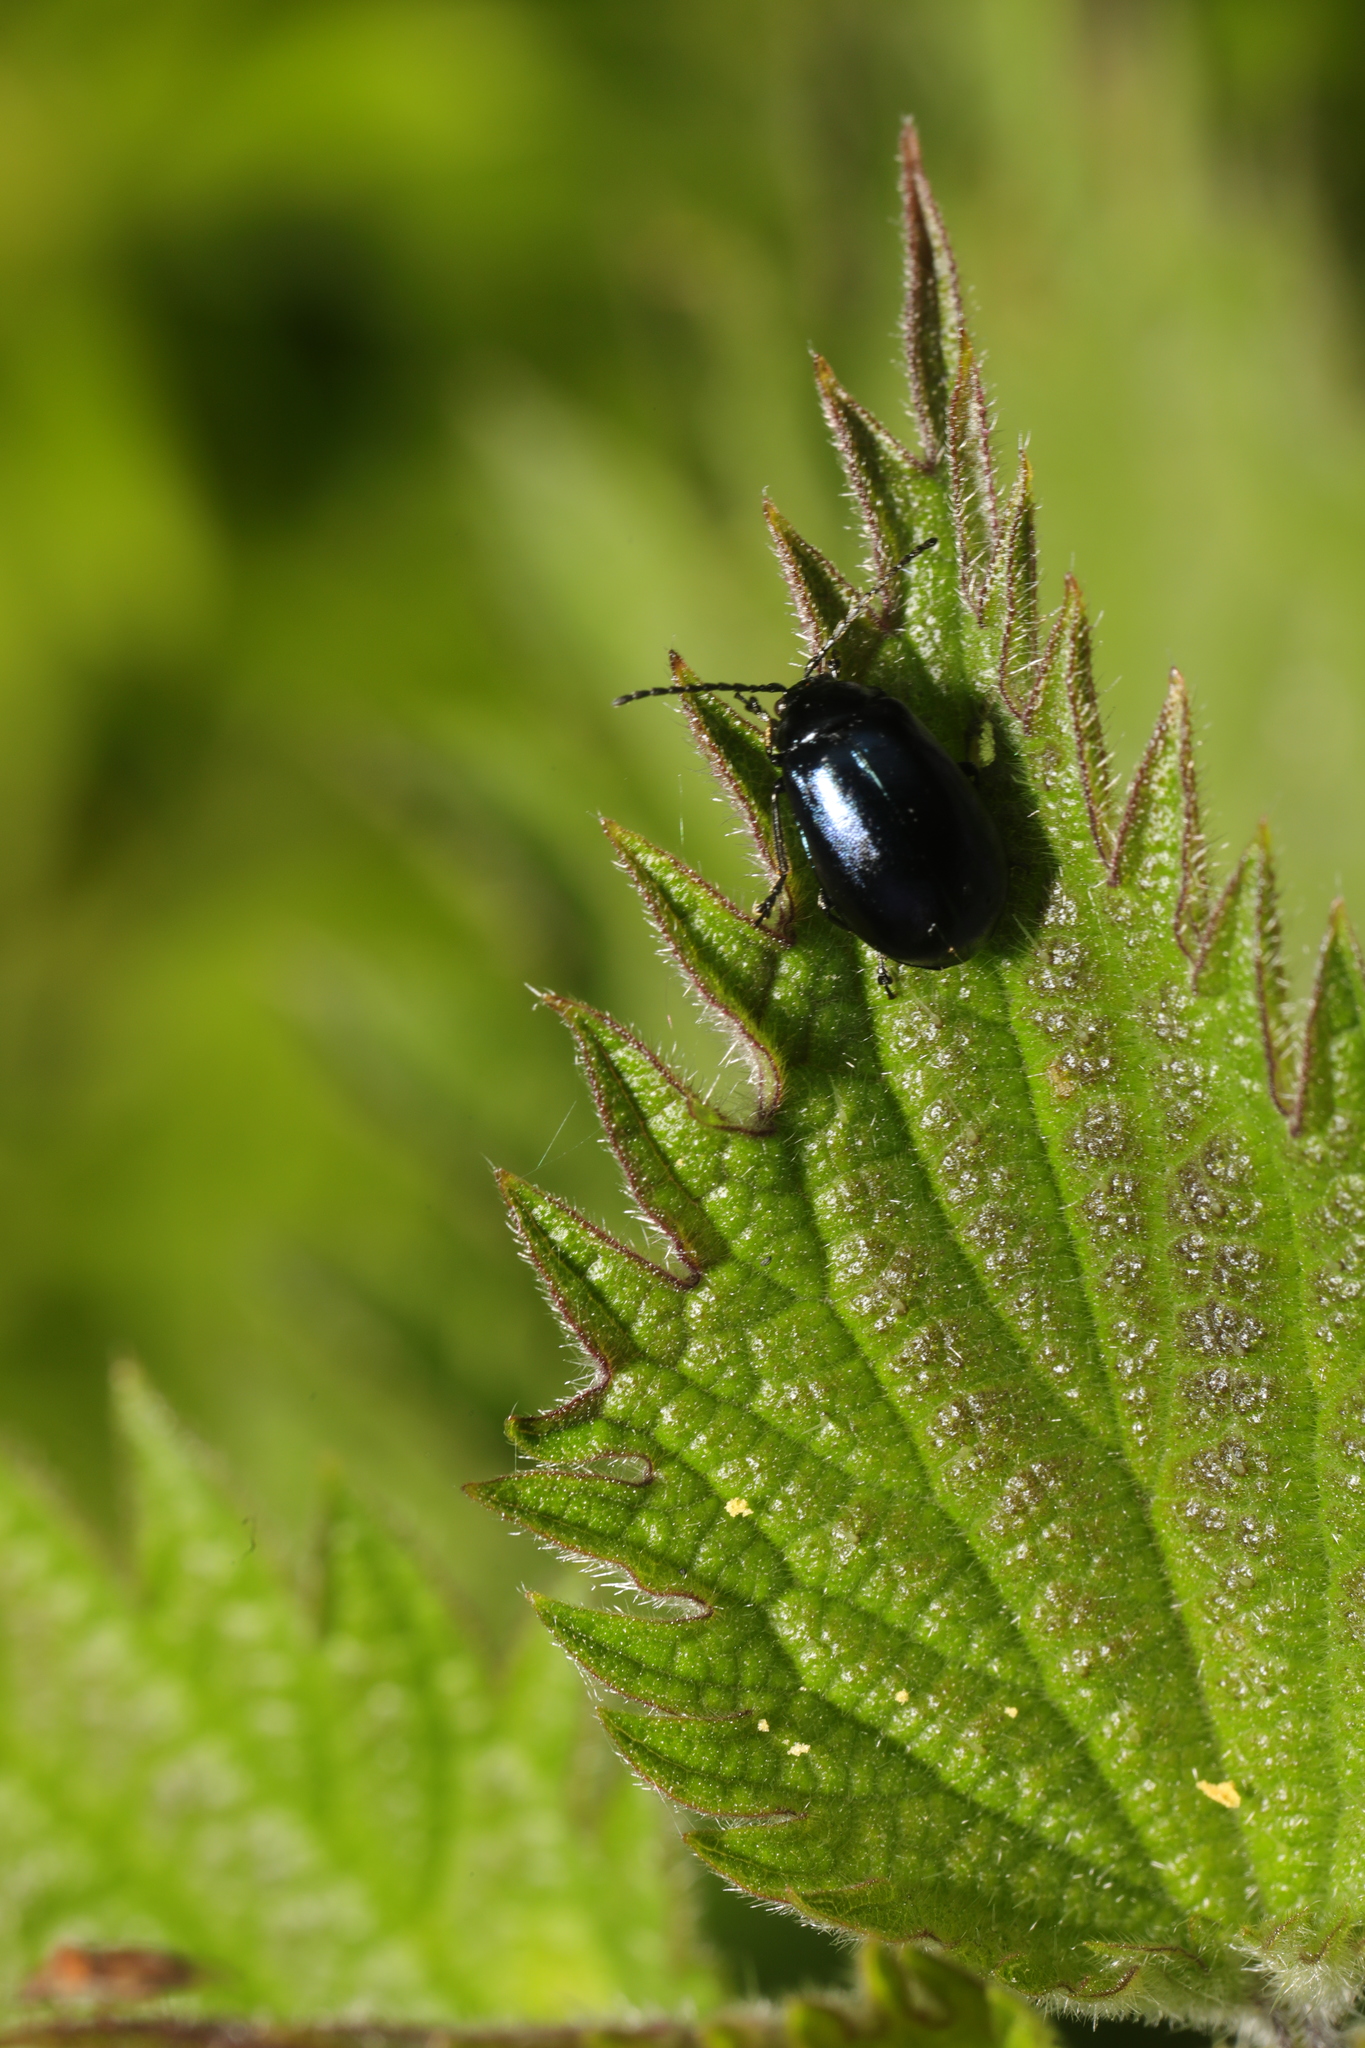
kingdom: Animalia
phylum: Arthropoda
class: Insecta
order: Coleoptera
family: Chrysomelidae
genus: Agelastica
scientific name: Agelastica alni
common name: Alder leaf beetle
